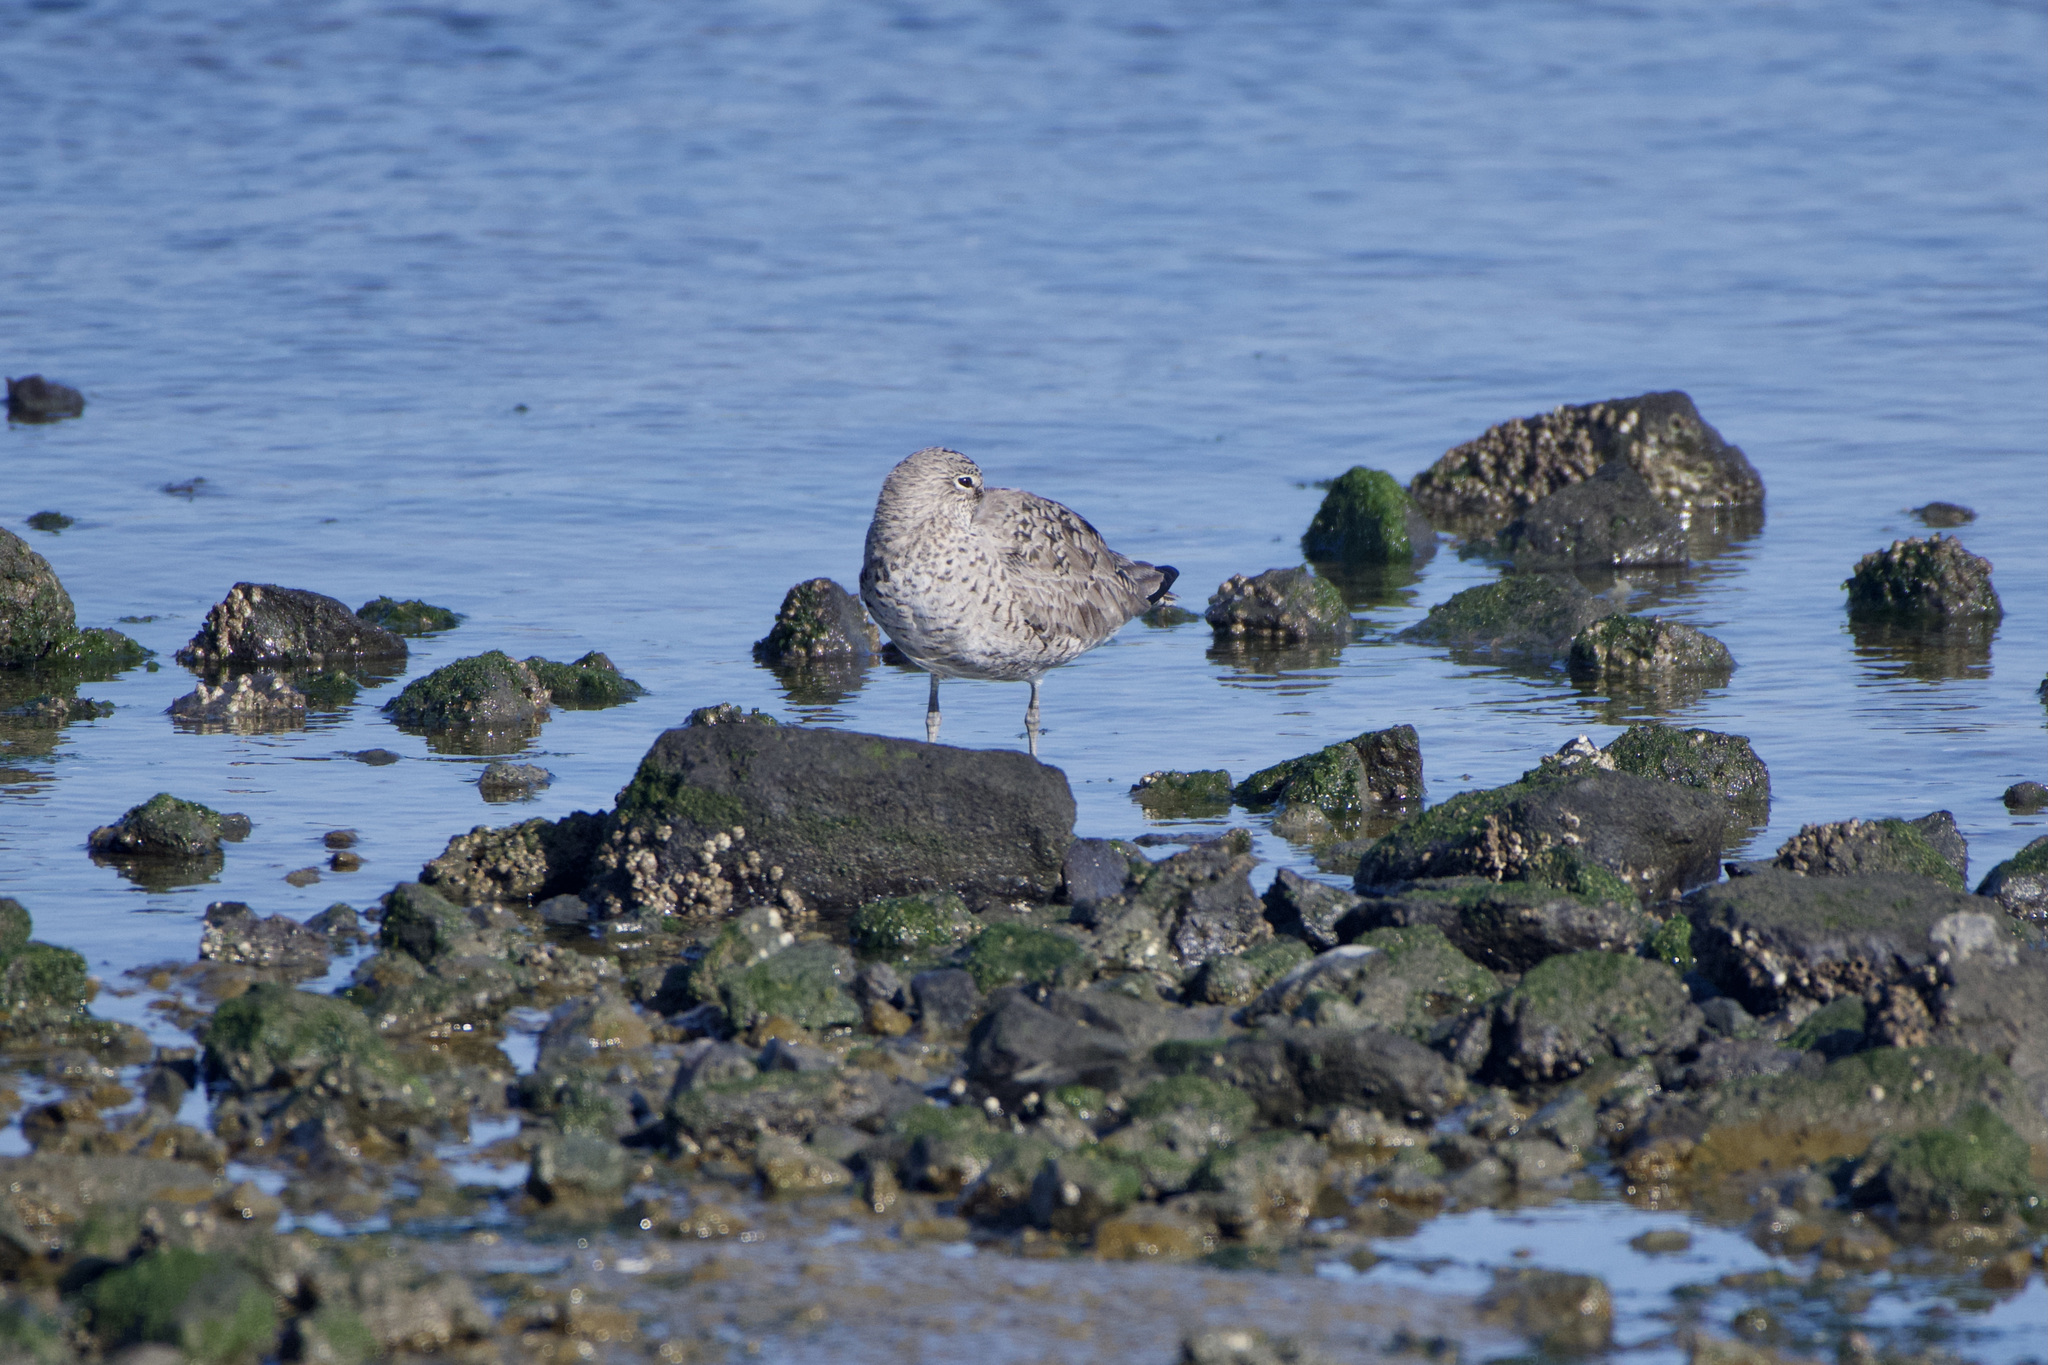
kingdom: Animalia
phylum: Chordata
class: Aves
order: Charadriiformes
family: Scolopacidae
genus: Tringa
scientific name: Tringa semipalmata
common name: Willet
